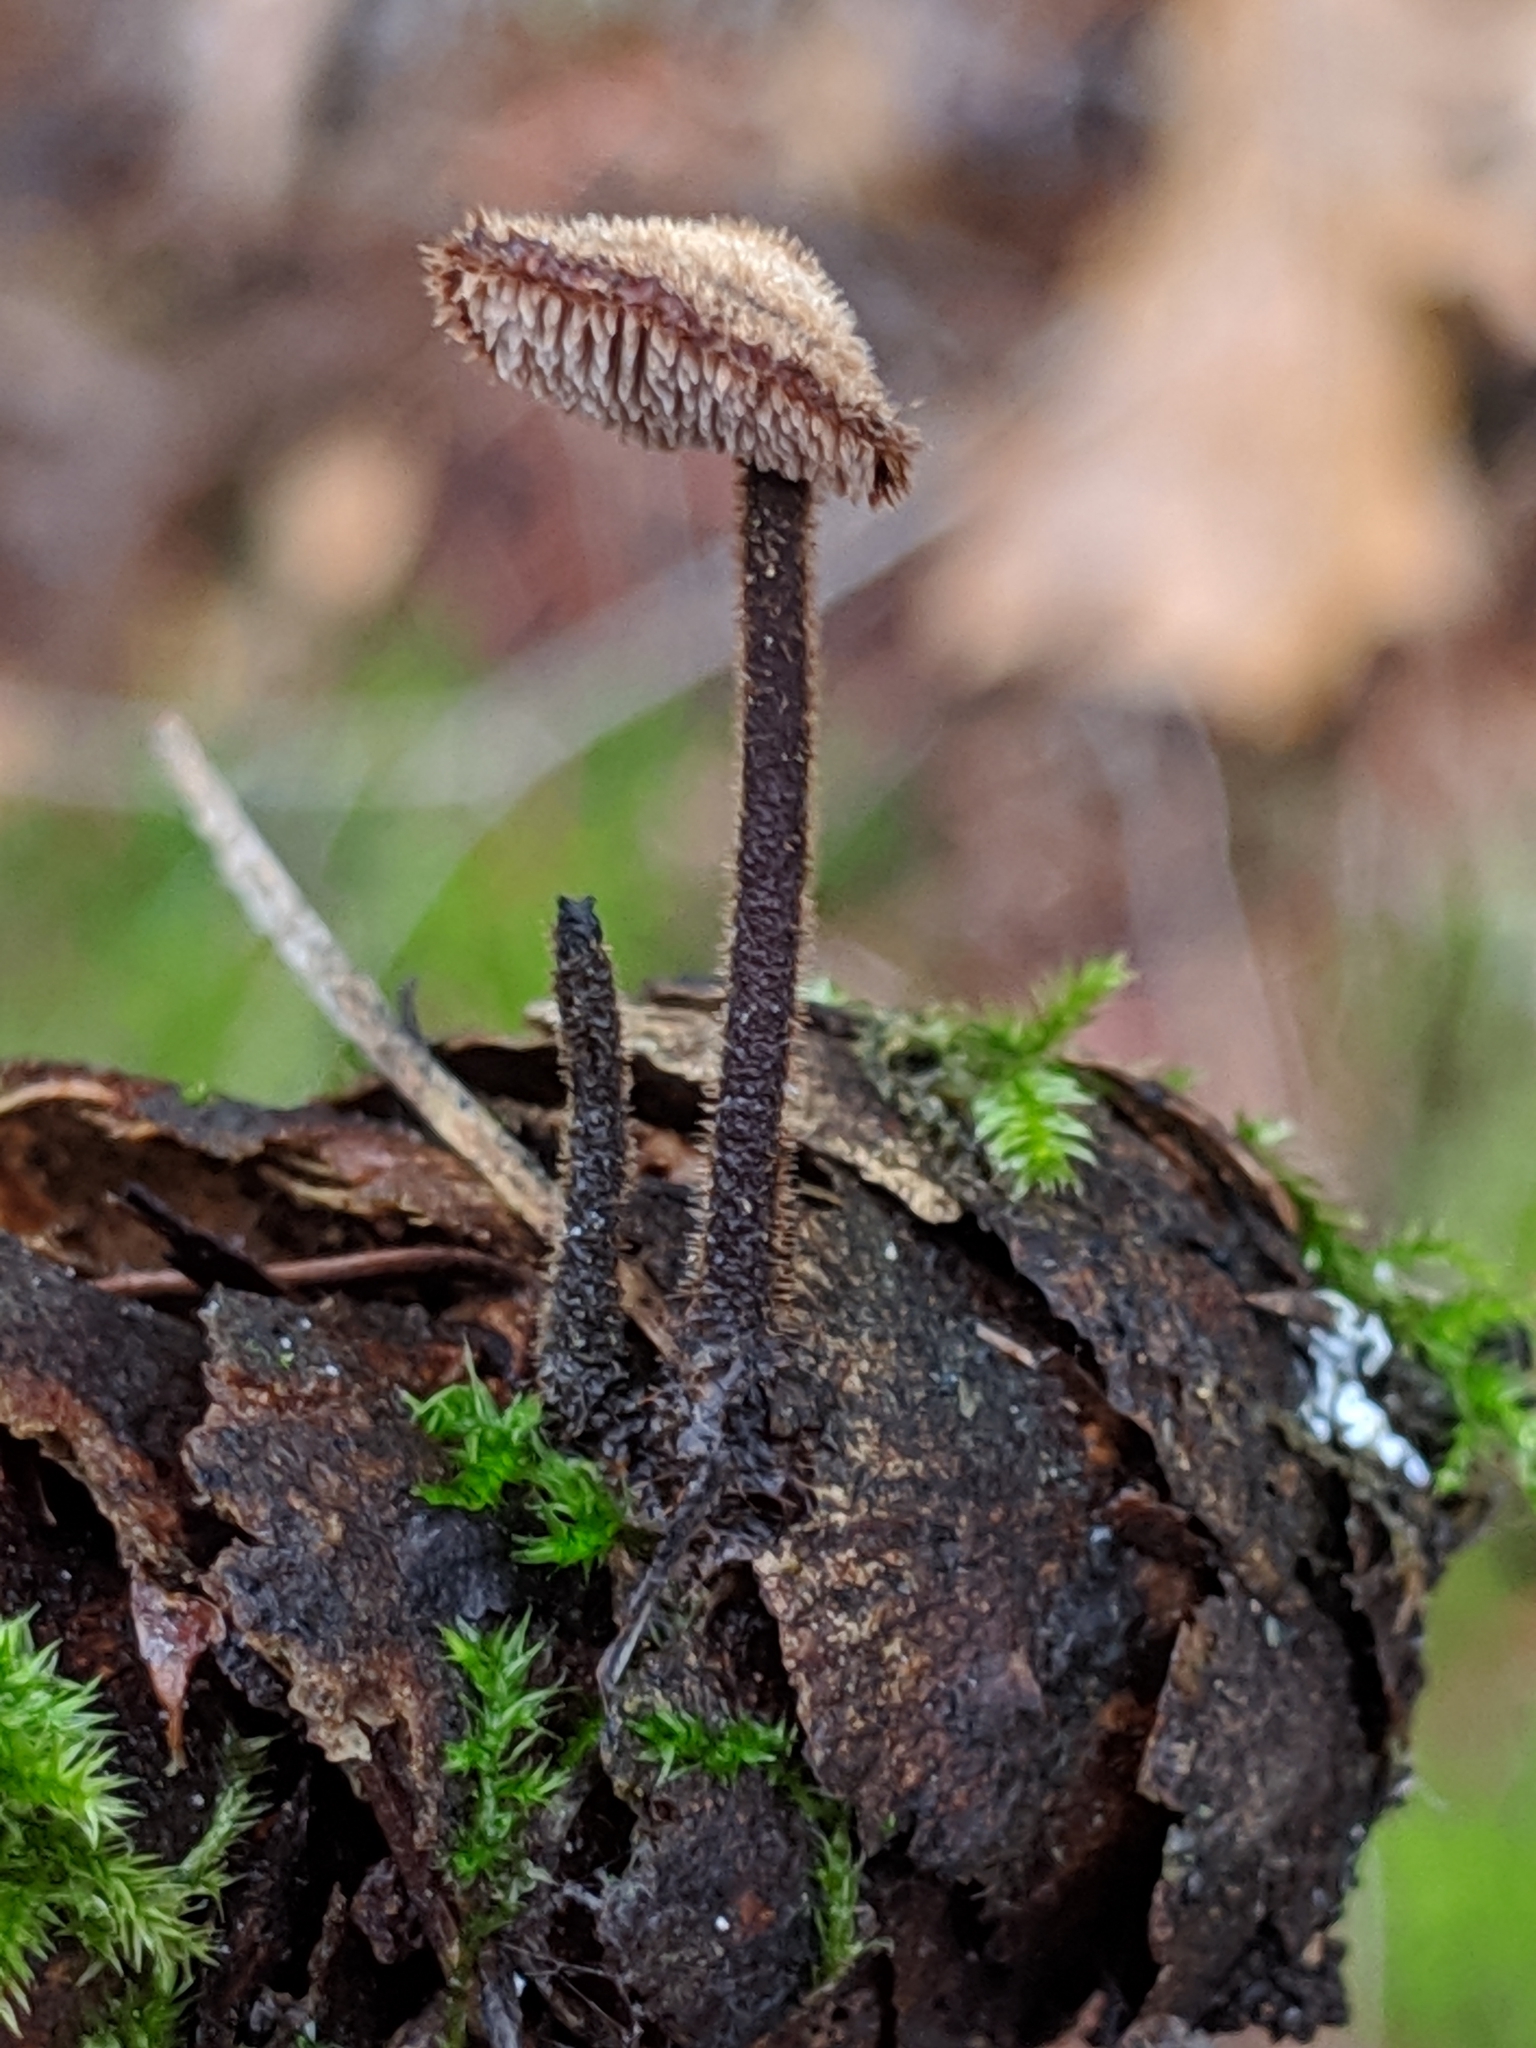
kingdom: Fungi
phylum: Basidiomycota
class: Agaricomycetes
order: Russulales
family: Auriscalpiaceae
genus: Auriscalpium
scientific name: Auriscalpium vulgare
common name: Earpick fungus
